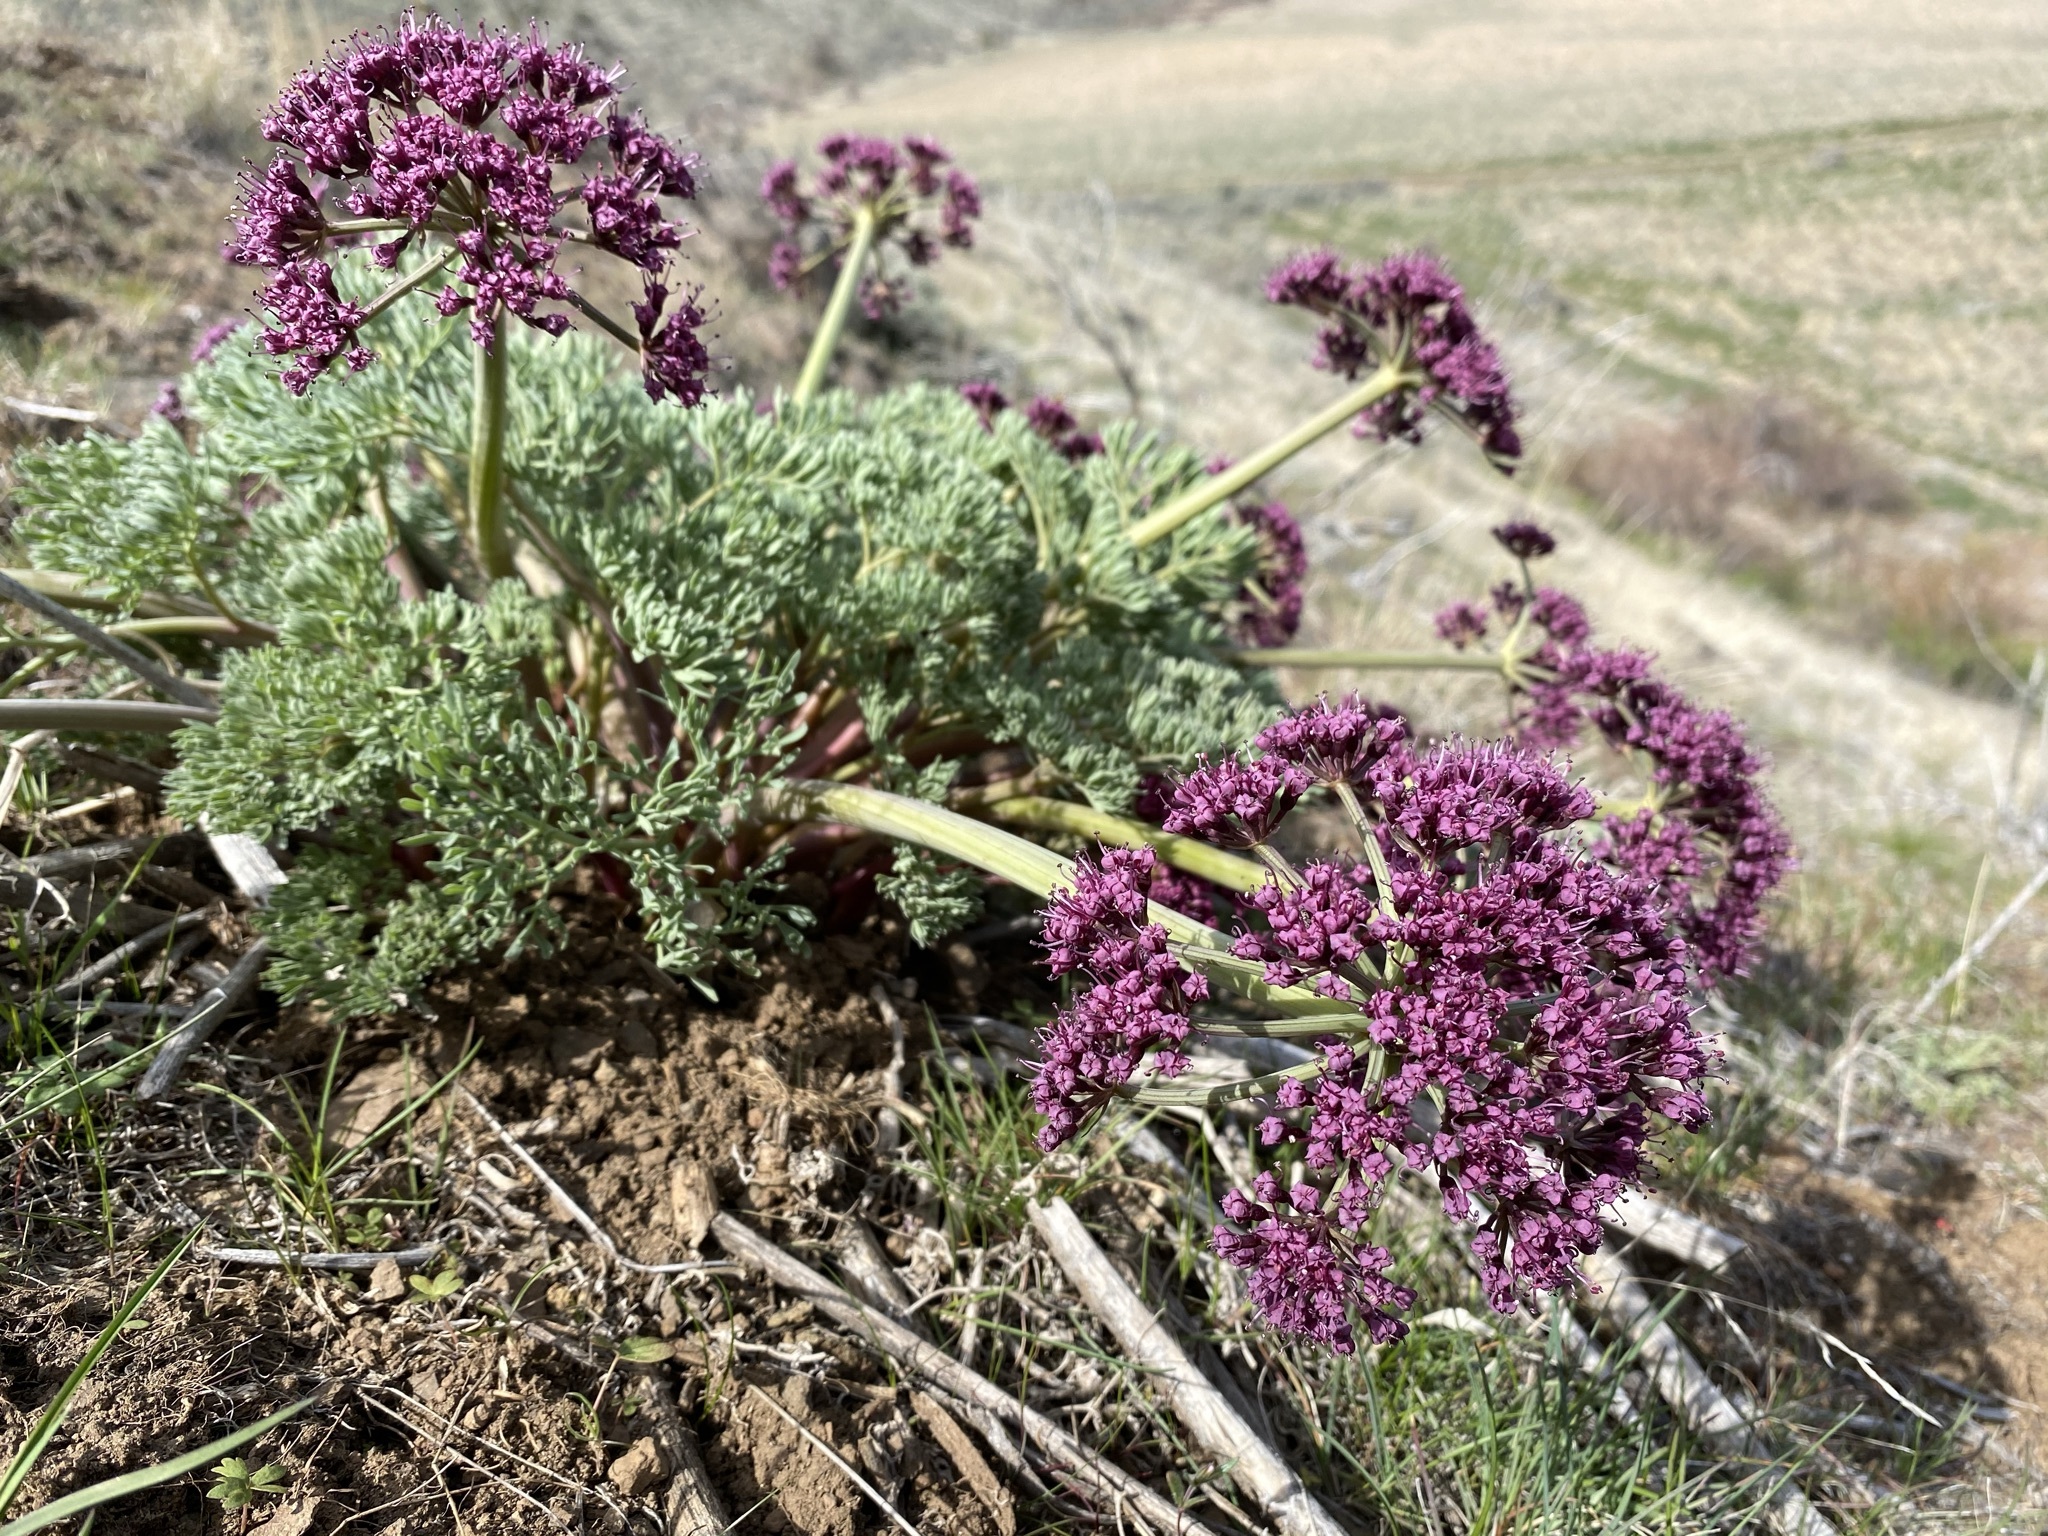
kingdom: Plantae
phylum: Tracheophyta
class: Magnoliopsida
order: Apiales
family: Apiaceae
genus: Lomatium
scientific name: Lomatium columbianum
